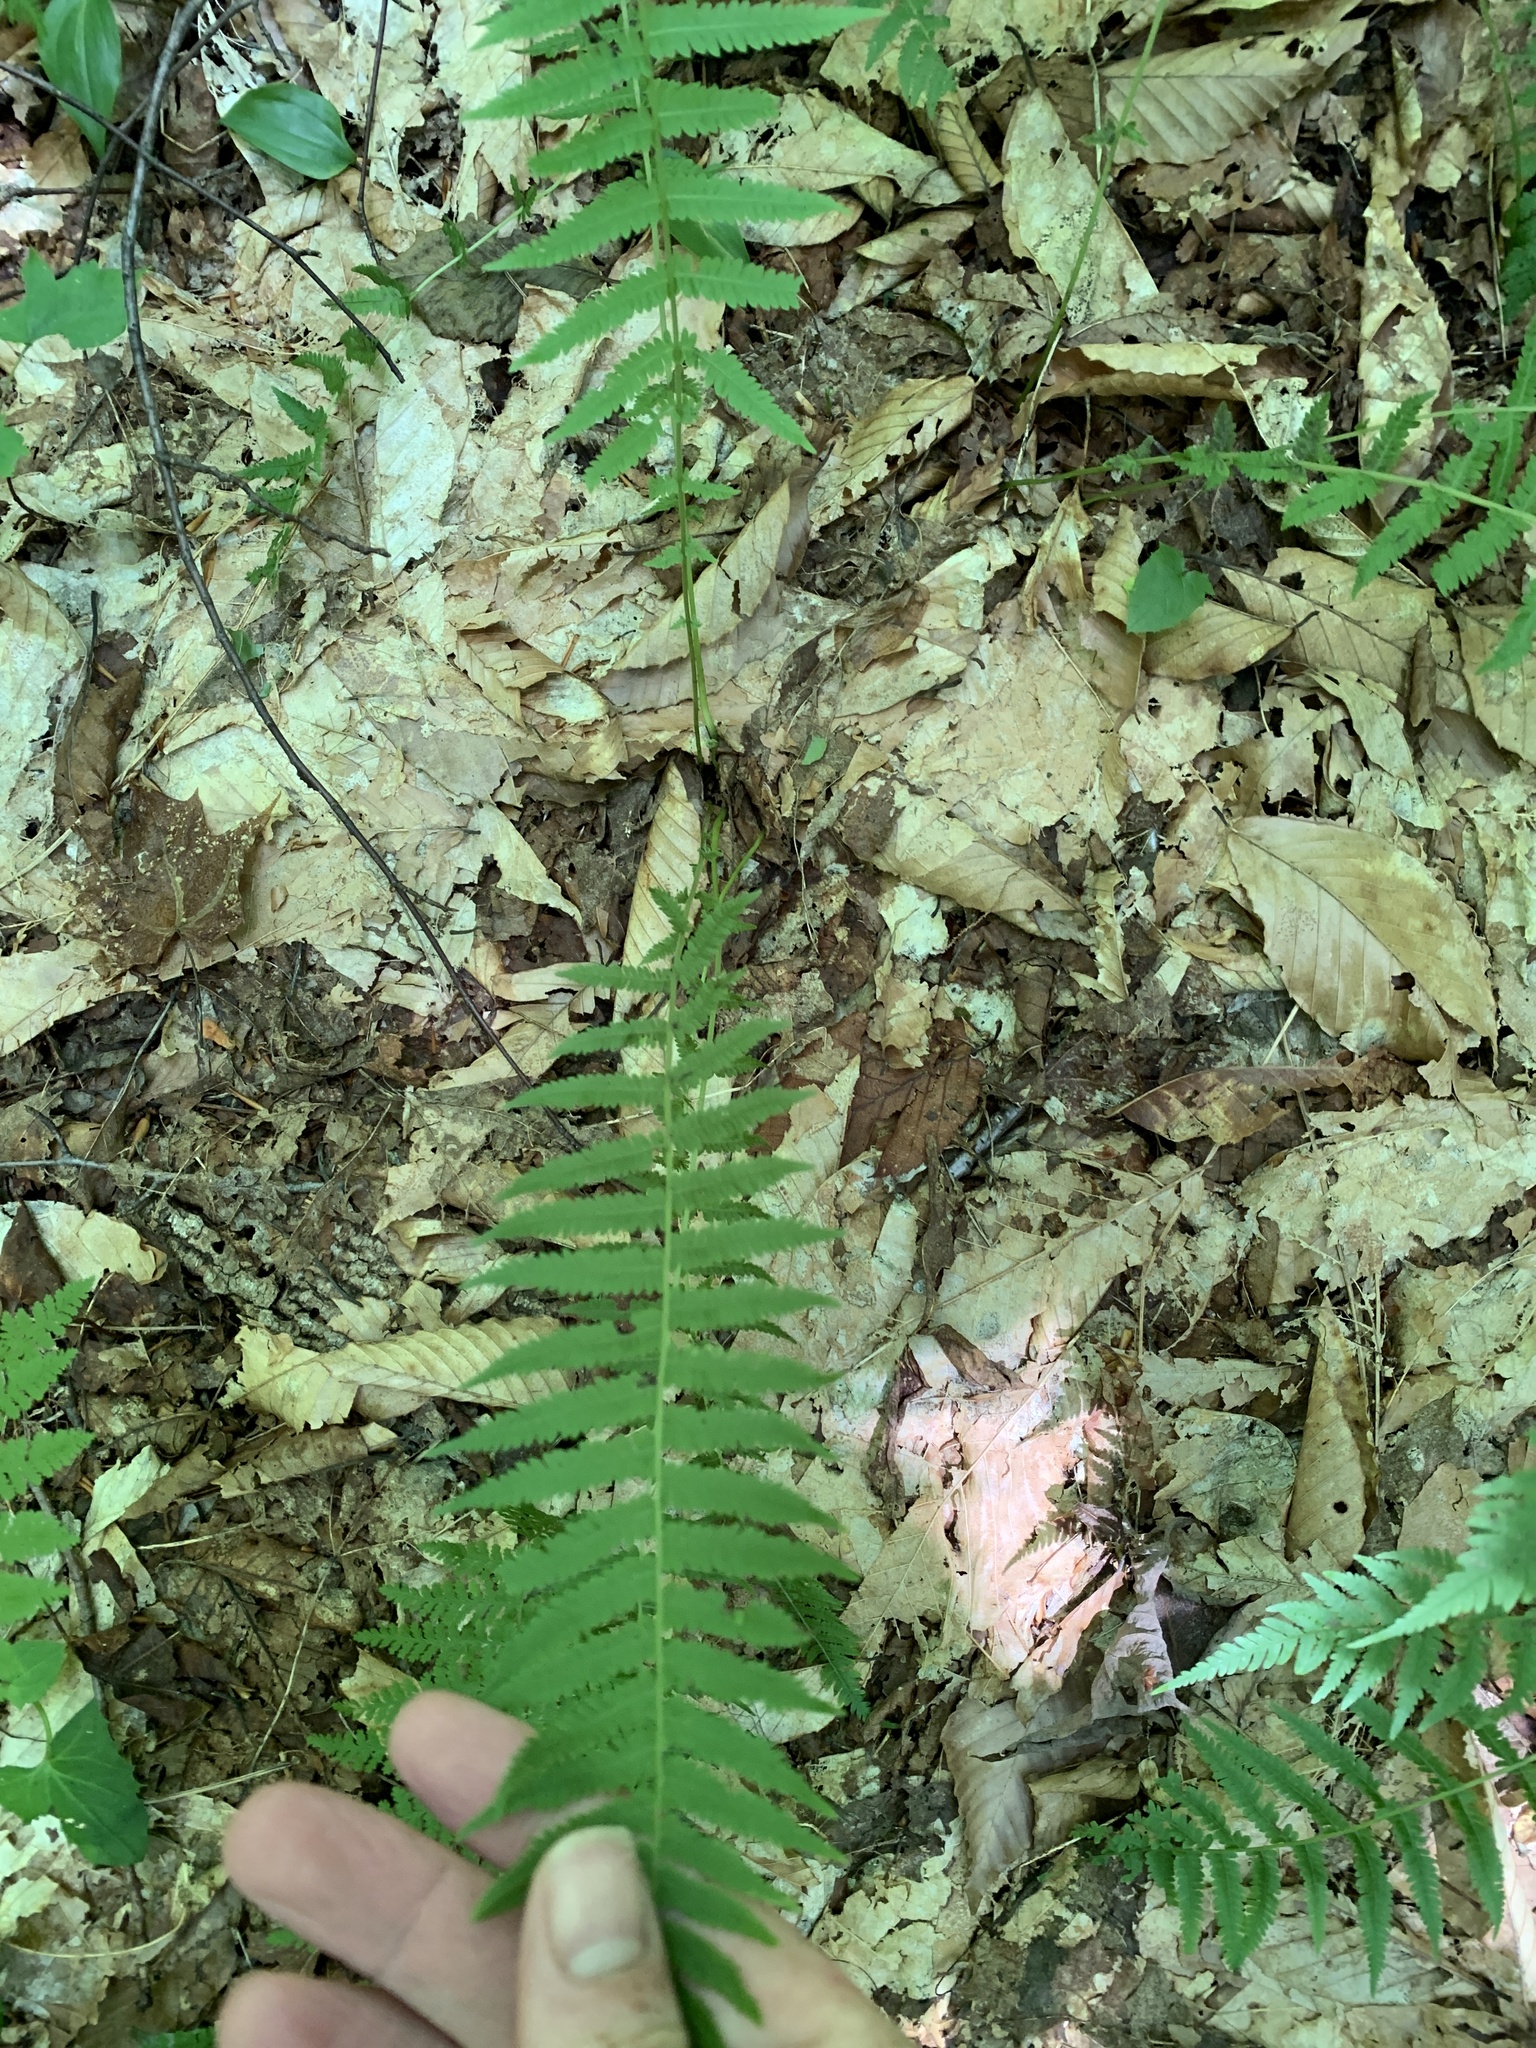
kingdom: Plantae
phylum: Tracheophyta
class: Polypodiopsida
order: Polypodiales
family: Thelypteridaceae
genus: Amauropelta
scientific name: Amauropelta noveboracensis
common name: New york fern
